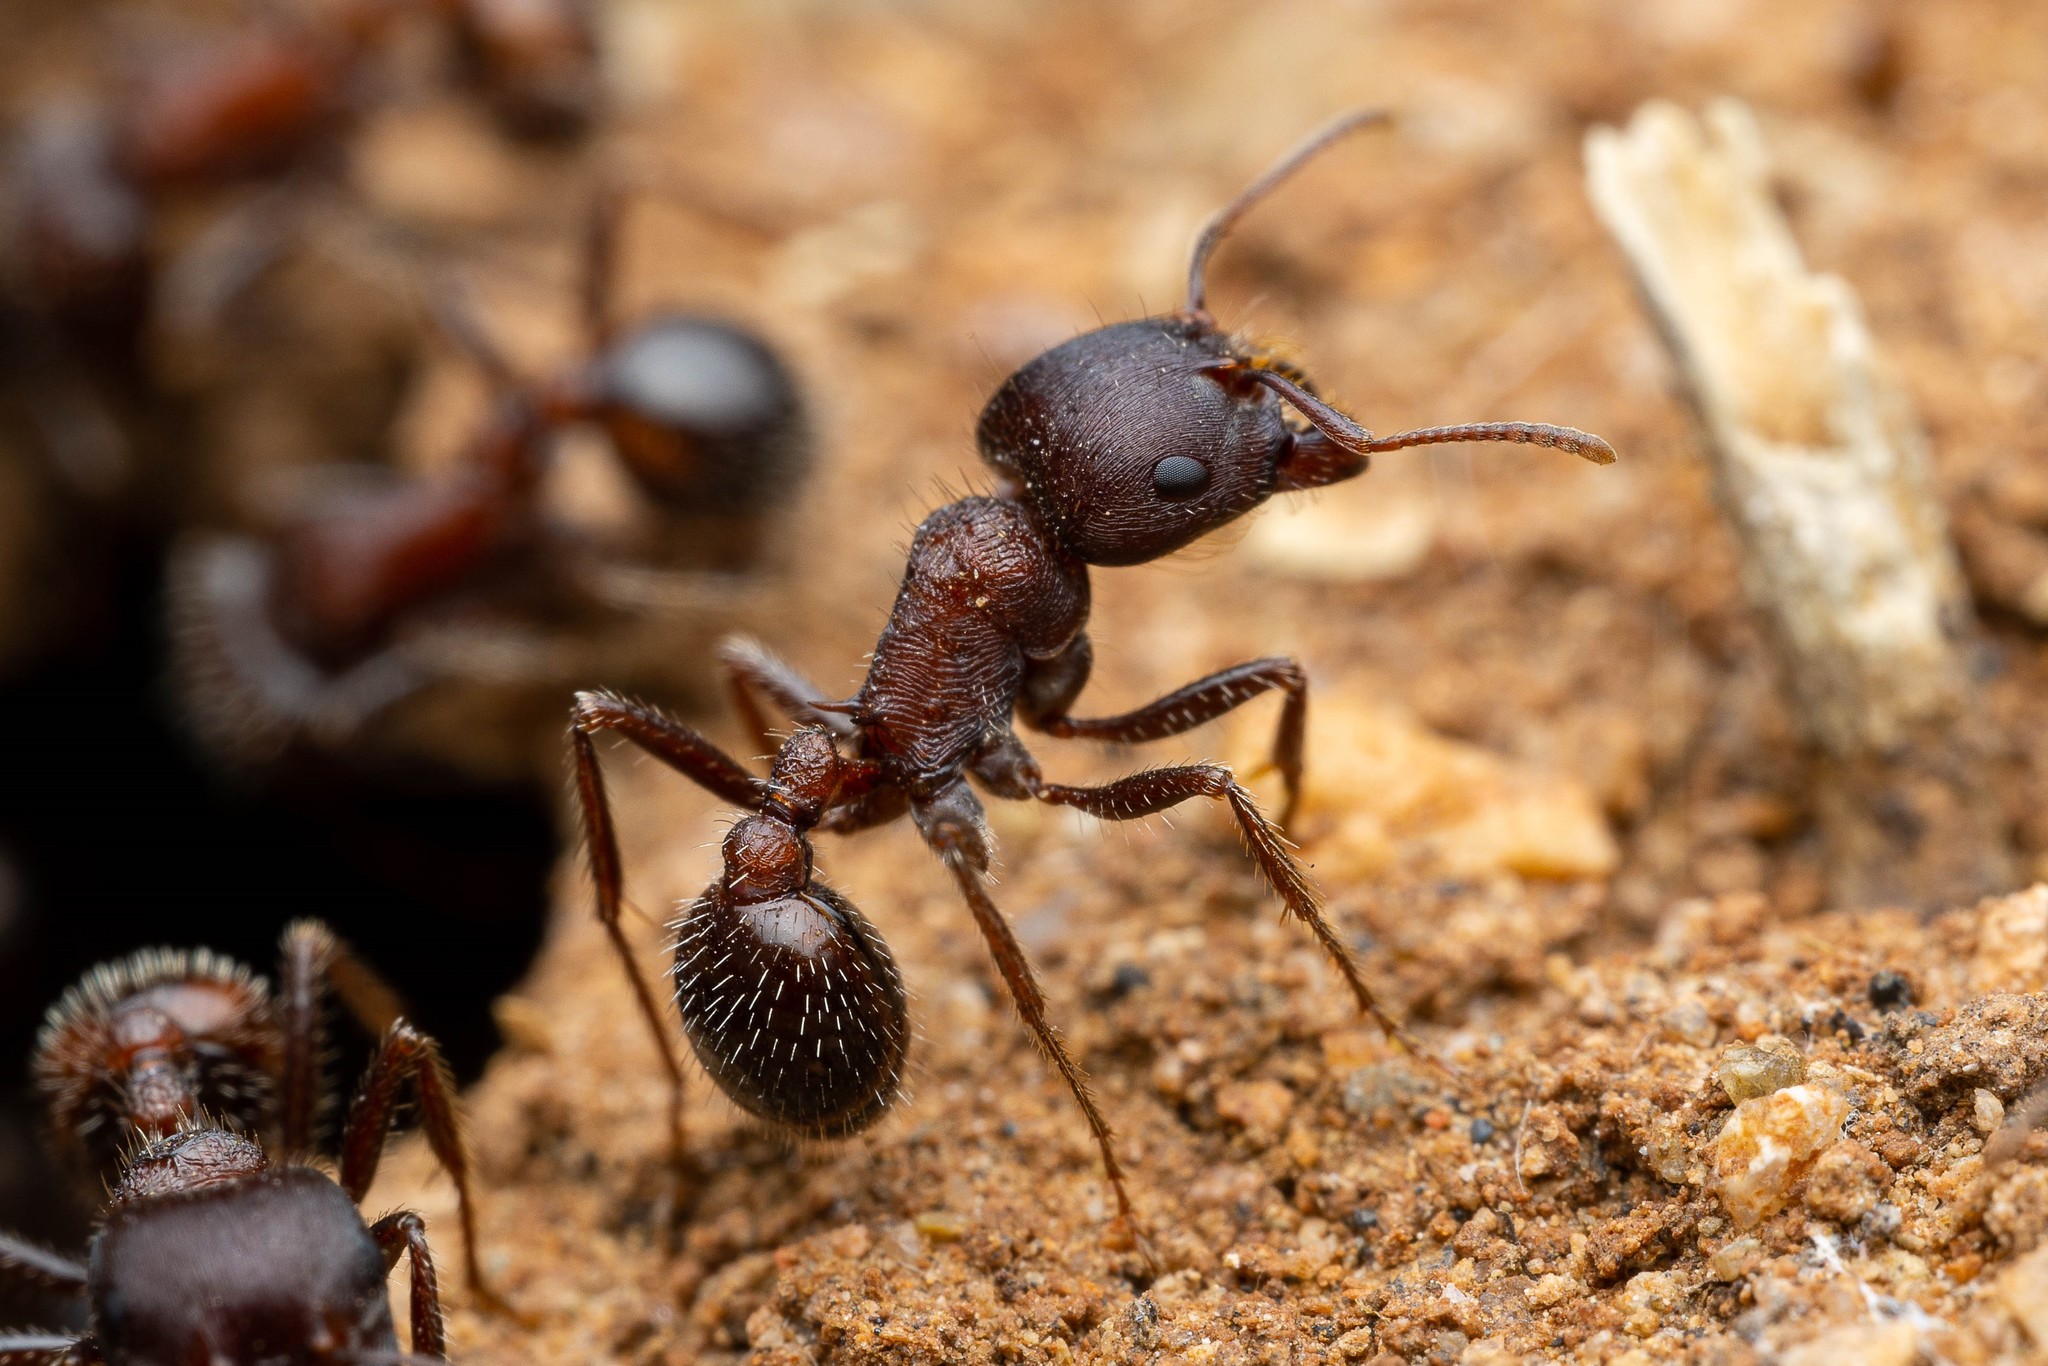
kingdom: Animalia
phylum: Arthropoda
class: Insecta
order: Hymenoptera
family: Formicidae
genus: Pogonomyrmex
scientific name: Pogonomyrmex rugosus
